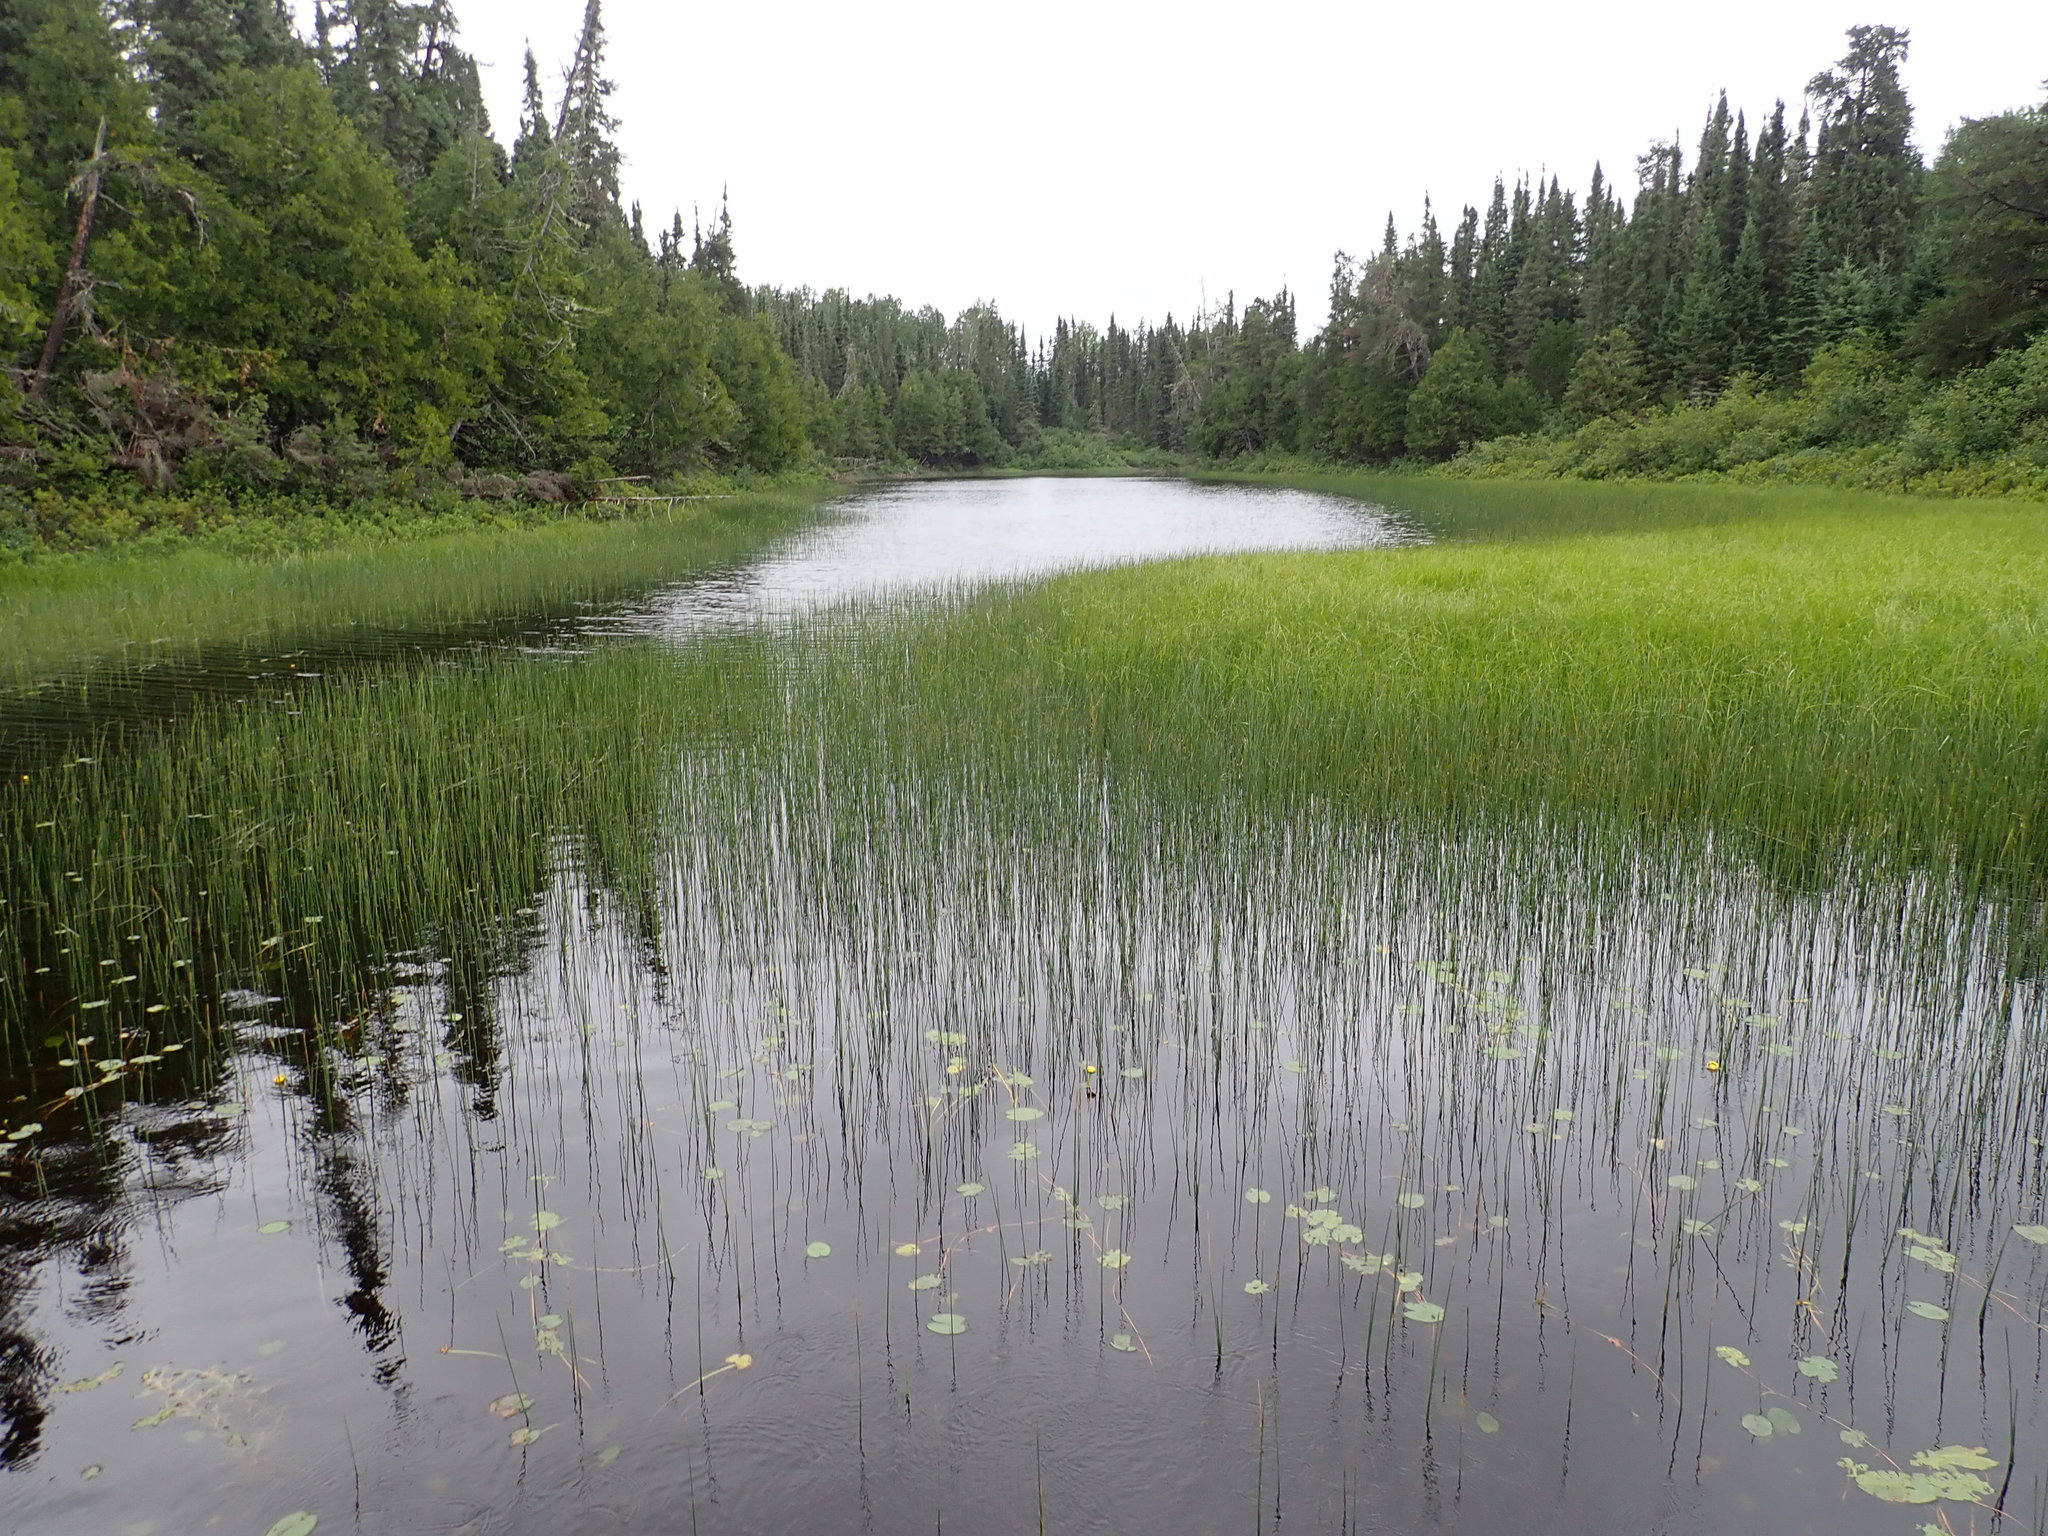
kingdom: Plantae
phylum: Tracheophyta
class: Polypodiopsida
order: Equisetales
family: Equisetaceae
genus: Equisetum
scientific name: Equisetum fluviatile
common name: Water horsetail
